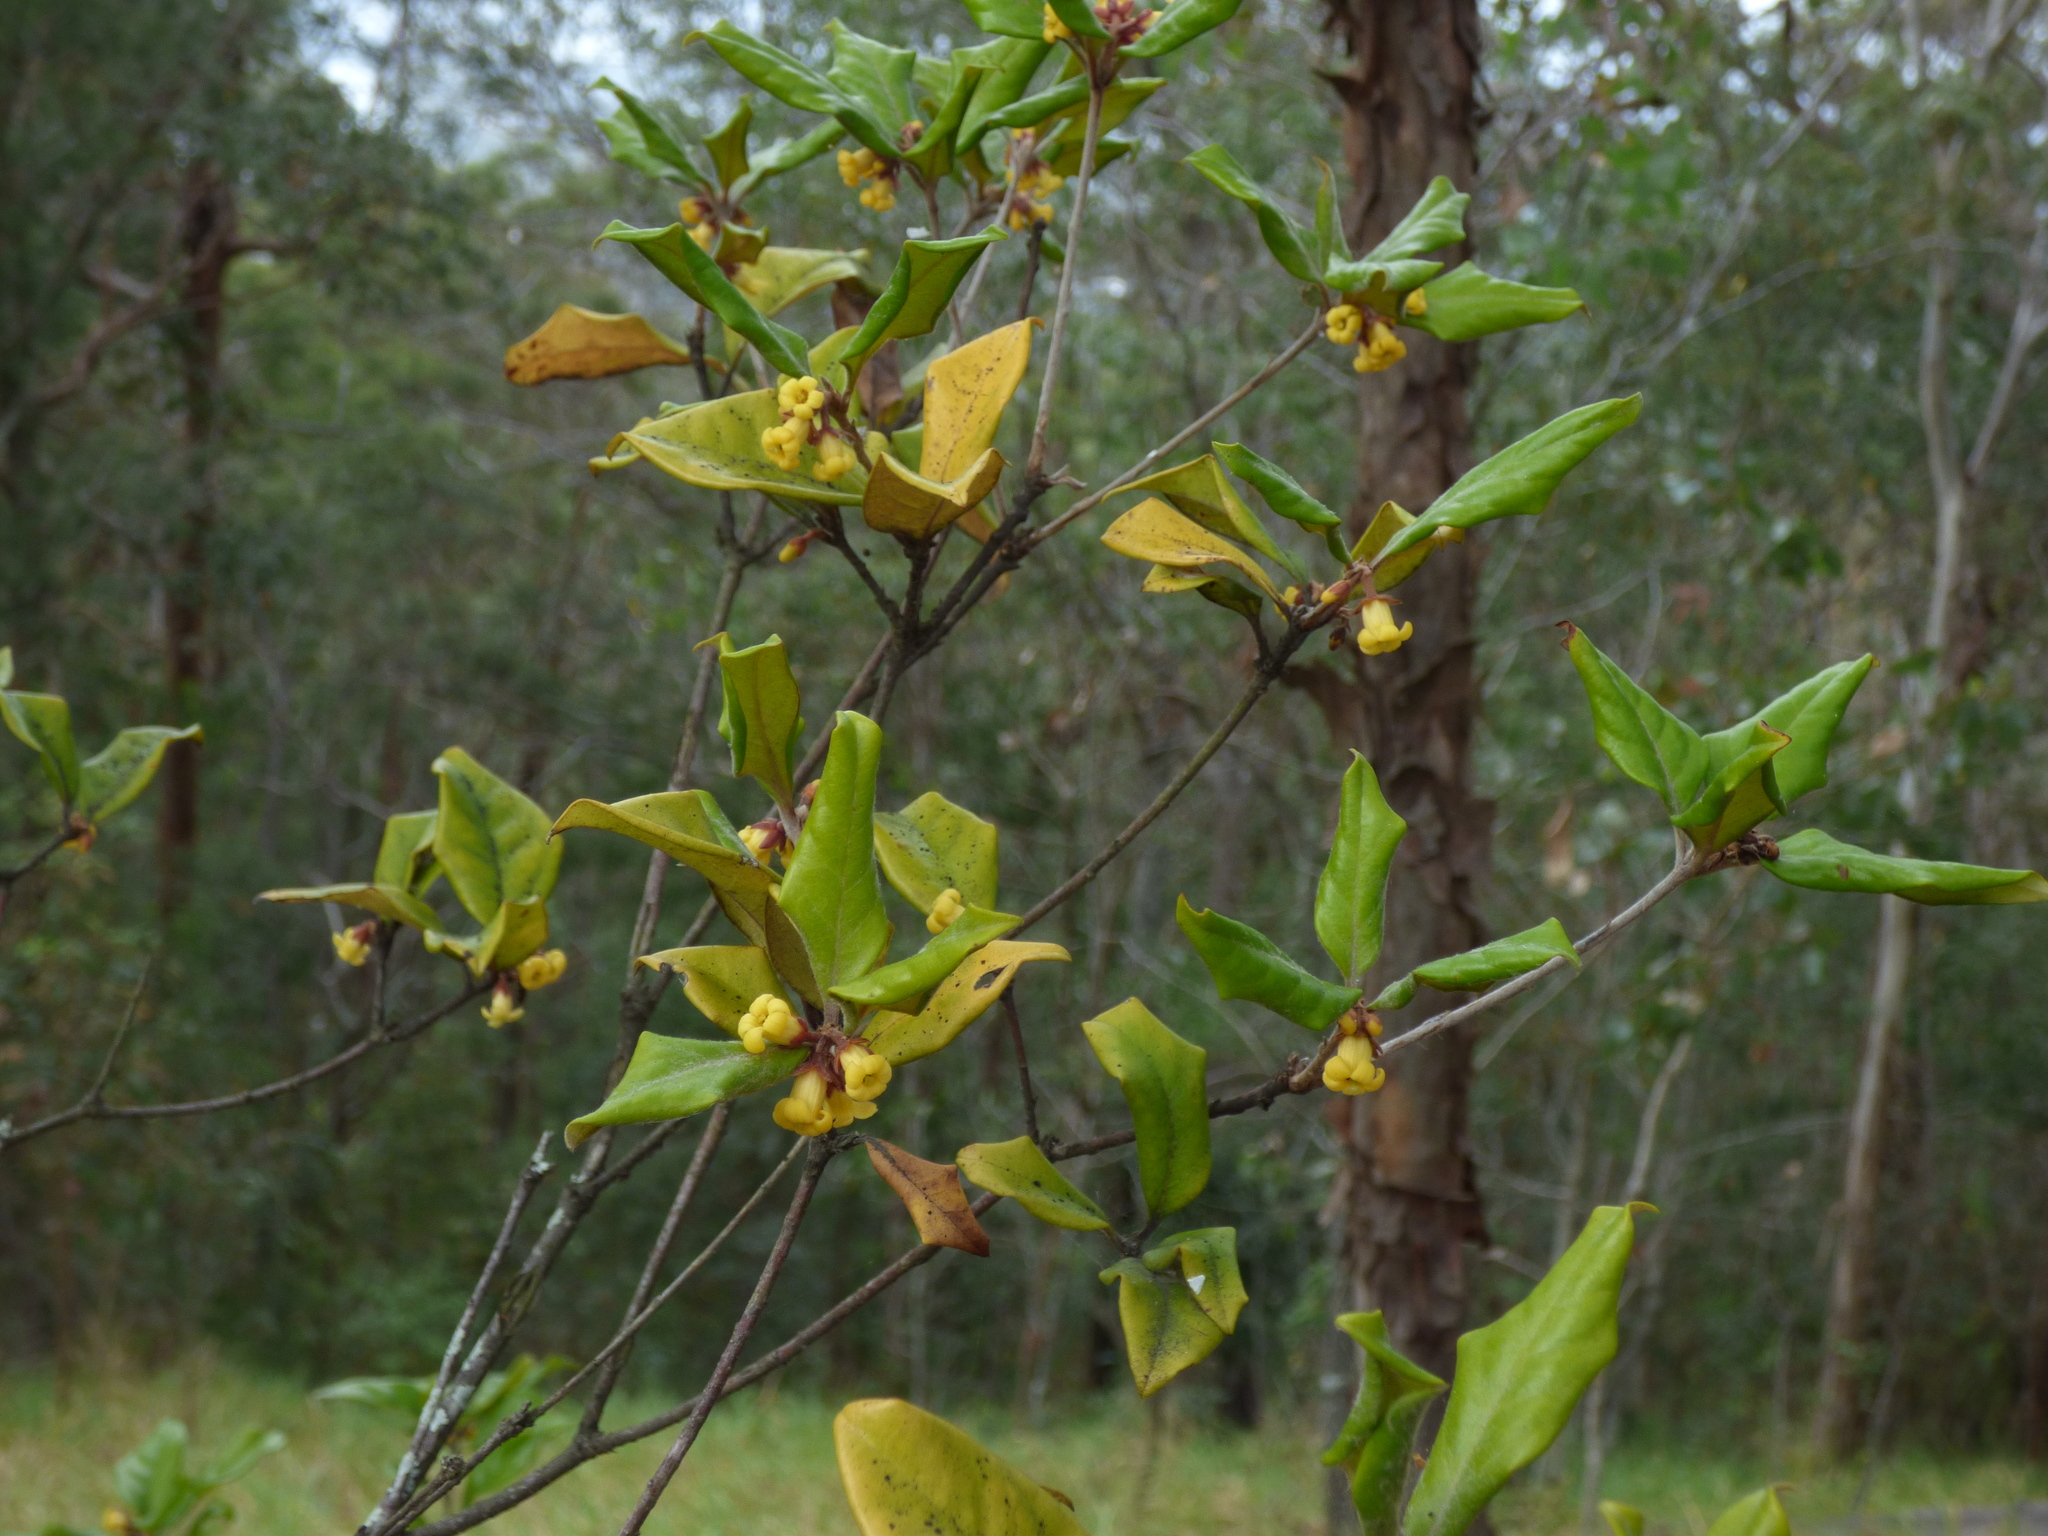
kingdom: Plantae
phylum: Tracheophyta
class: Magnoliopsida
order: Apiales
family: Pittosporaceae
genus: Pittosporum
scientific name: Pittosporum revolutum
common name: Brisbane-laurel
